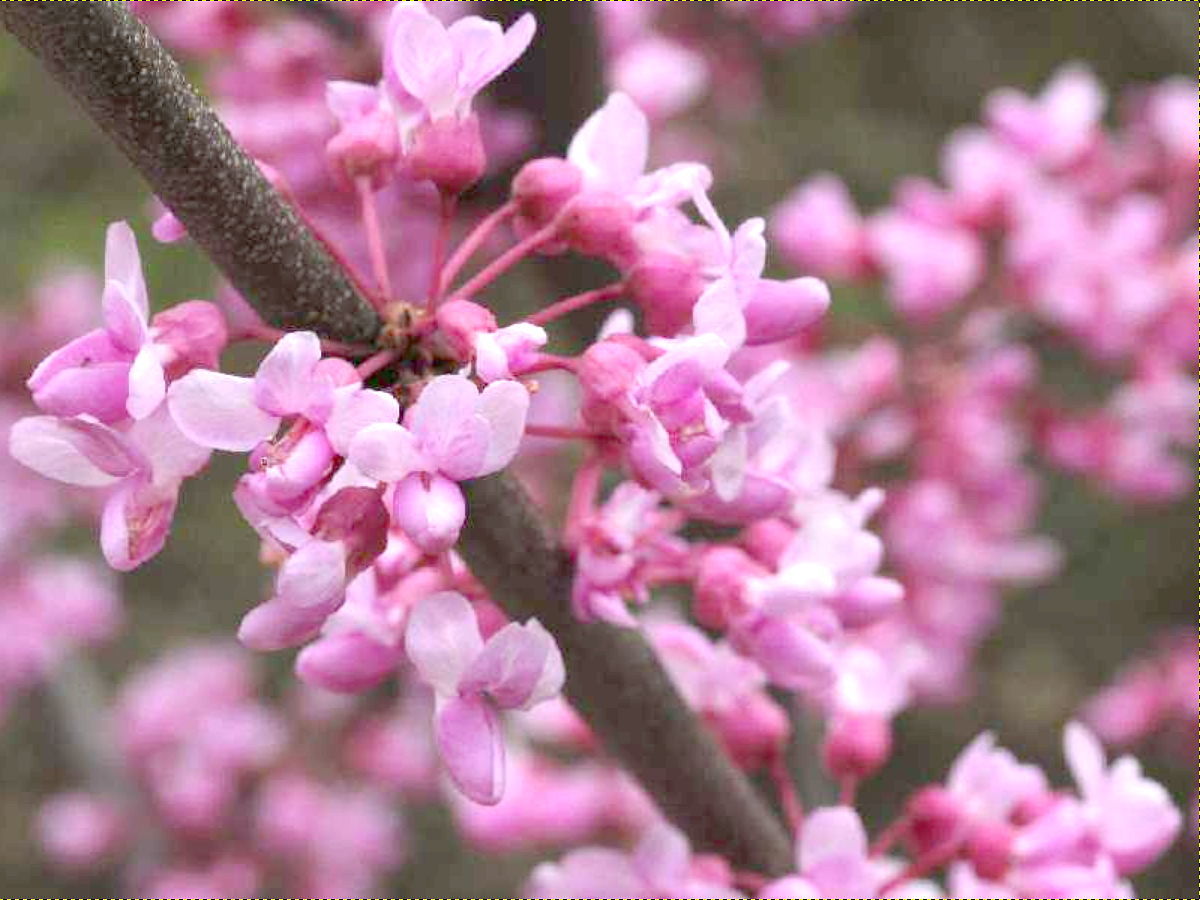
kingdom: Plantae
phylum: Tracheophyta
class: Magnoliopsida
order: Fabales
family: Fabaceae
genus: Cercis
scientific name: Cercis canadensis
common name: Eastern redbud
